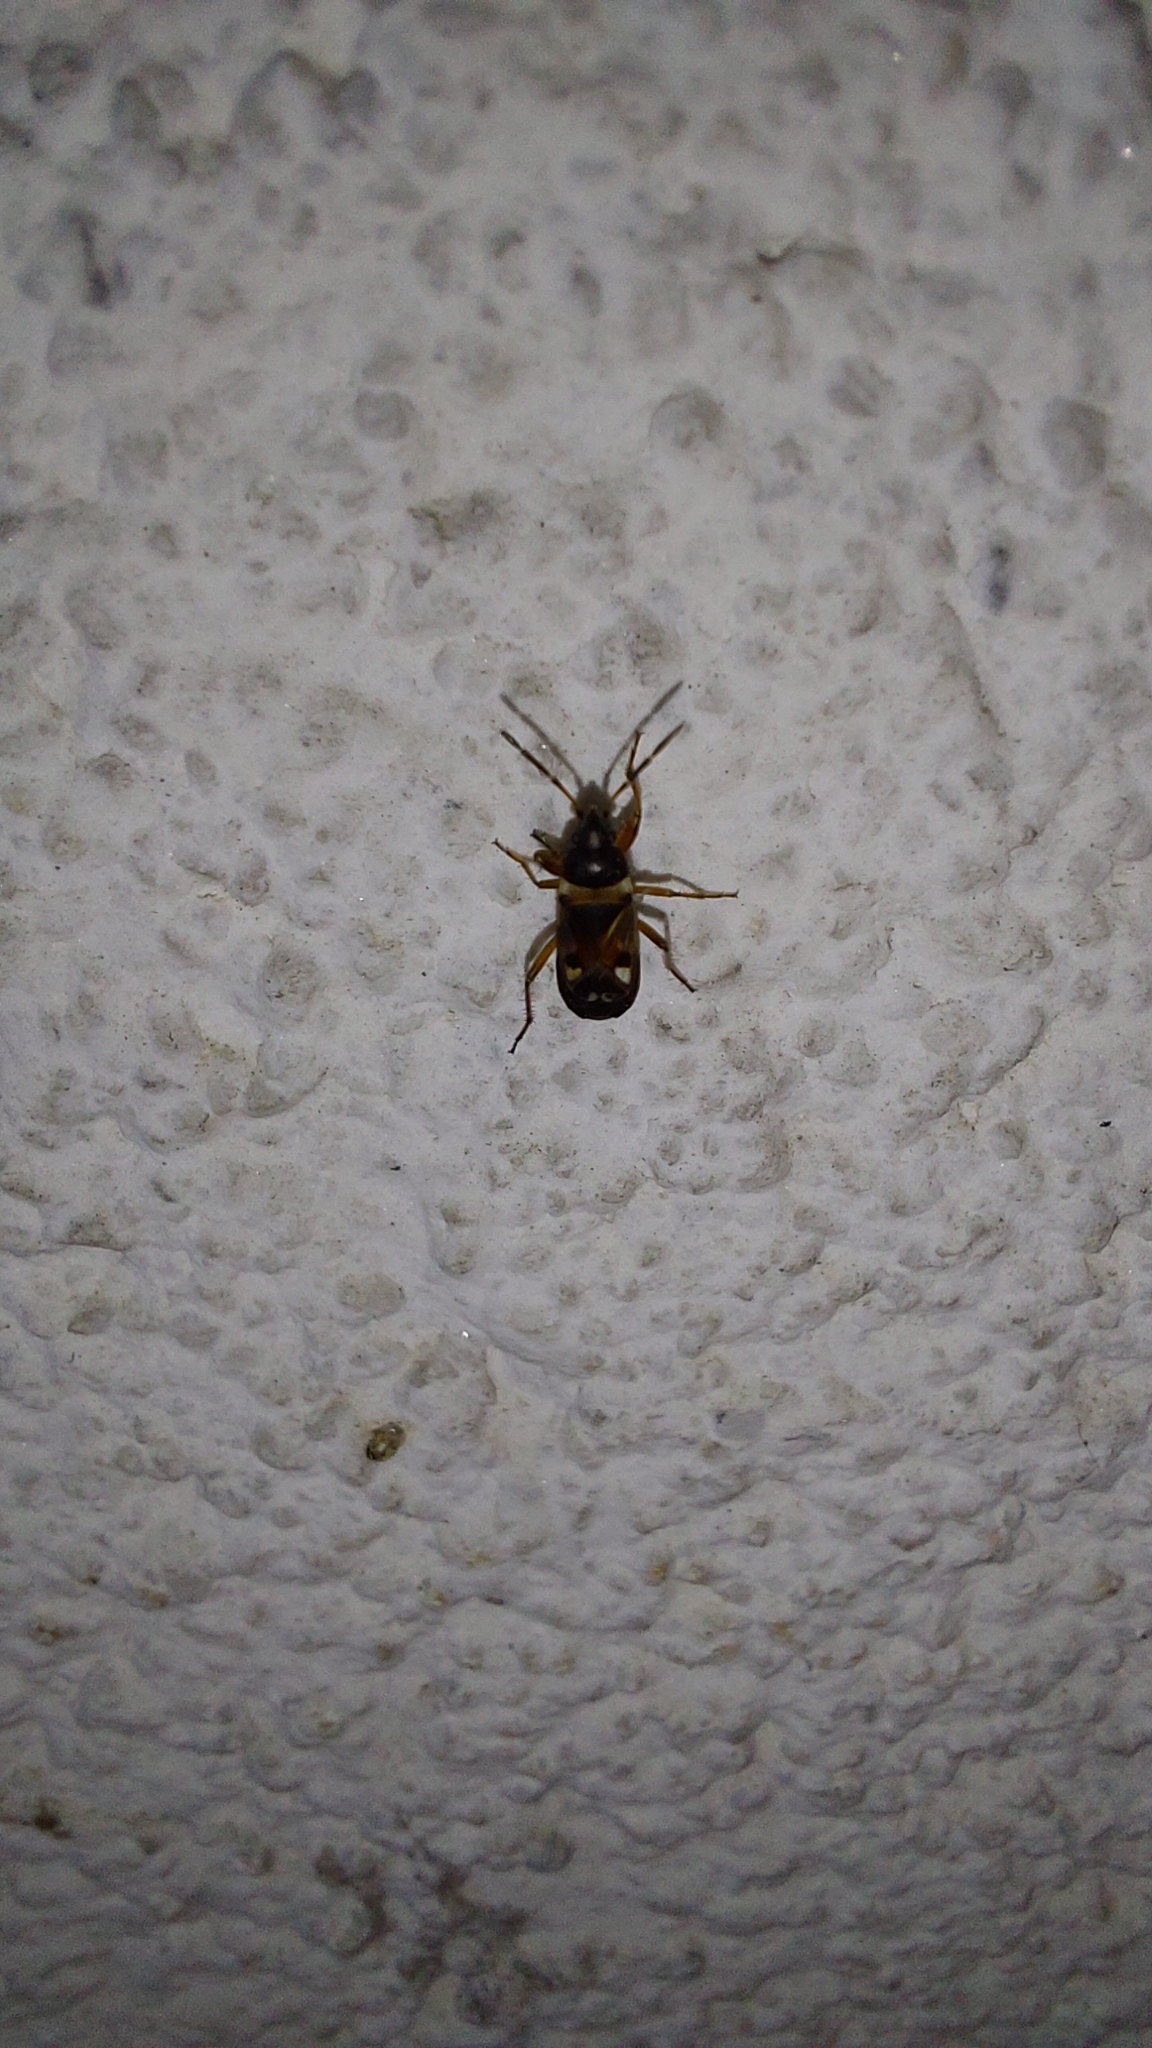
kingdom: Animalia
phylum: Arthropoda
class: Insecta
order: Hemiptera
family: Rhyparochromidae
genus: Raglius
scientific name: Raglius alboacuminatus
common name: Dirt-colored seed bug
